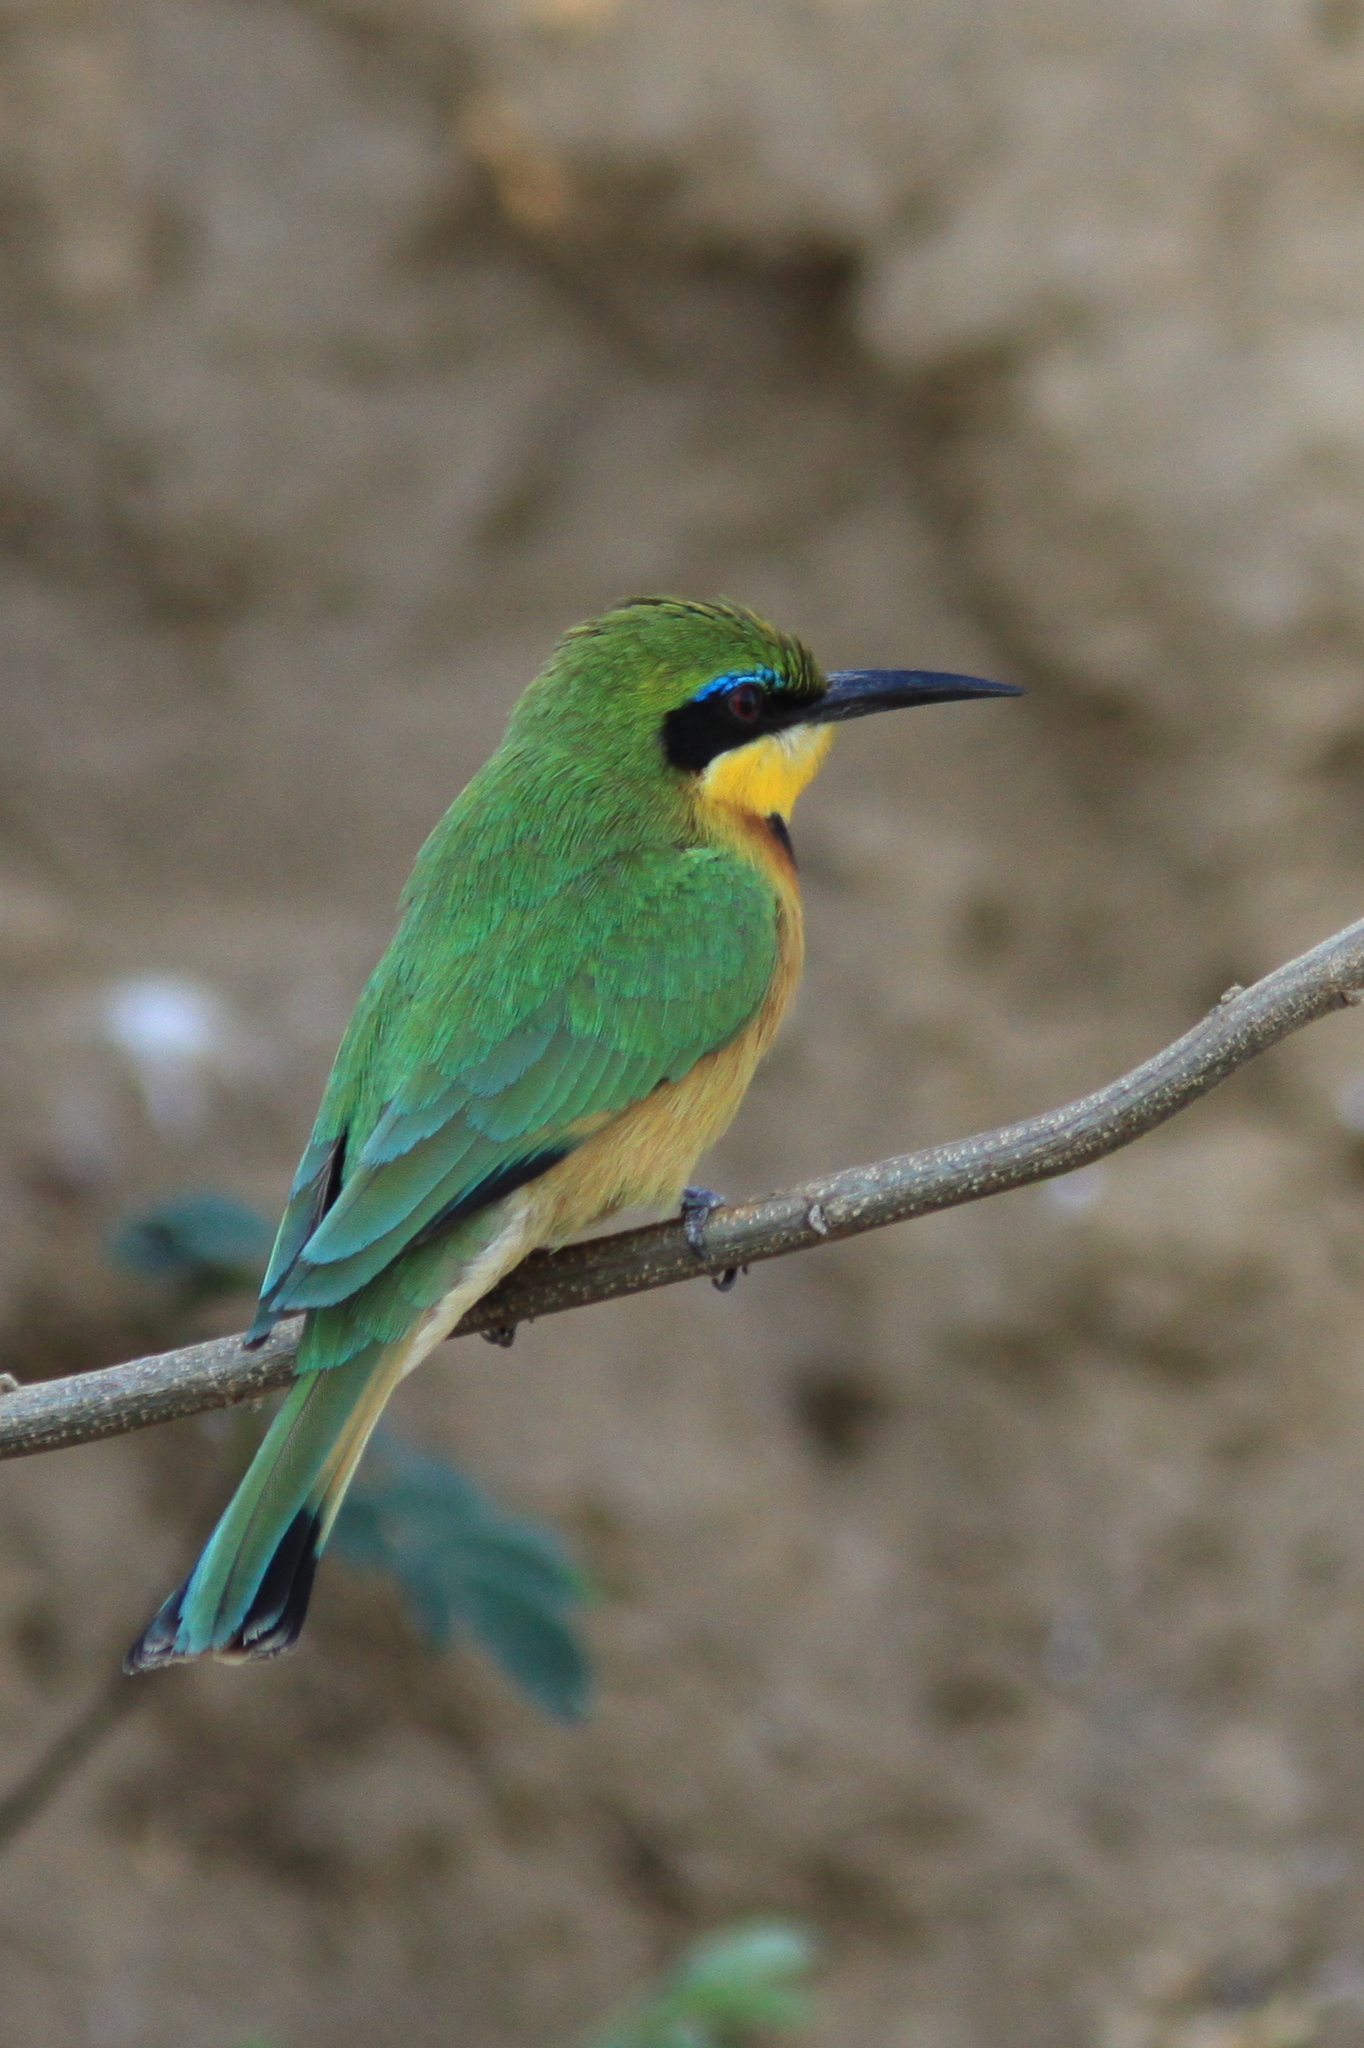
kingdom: Animalia
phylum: Chordata
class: Aves
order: Coraciiformes
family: Meropidae
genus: Merops
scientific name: Merops pusillus
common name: Little bee-eater
